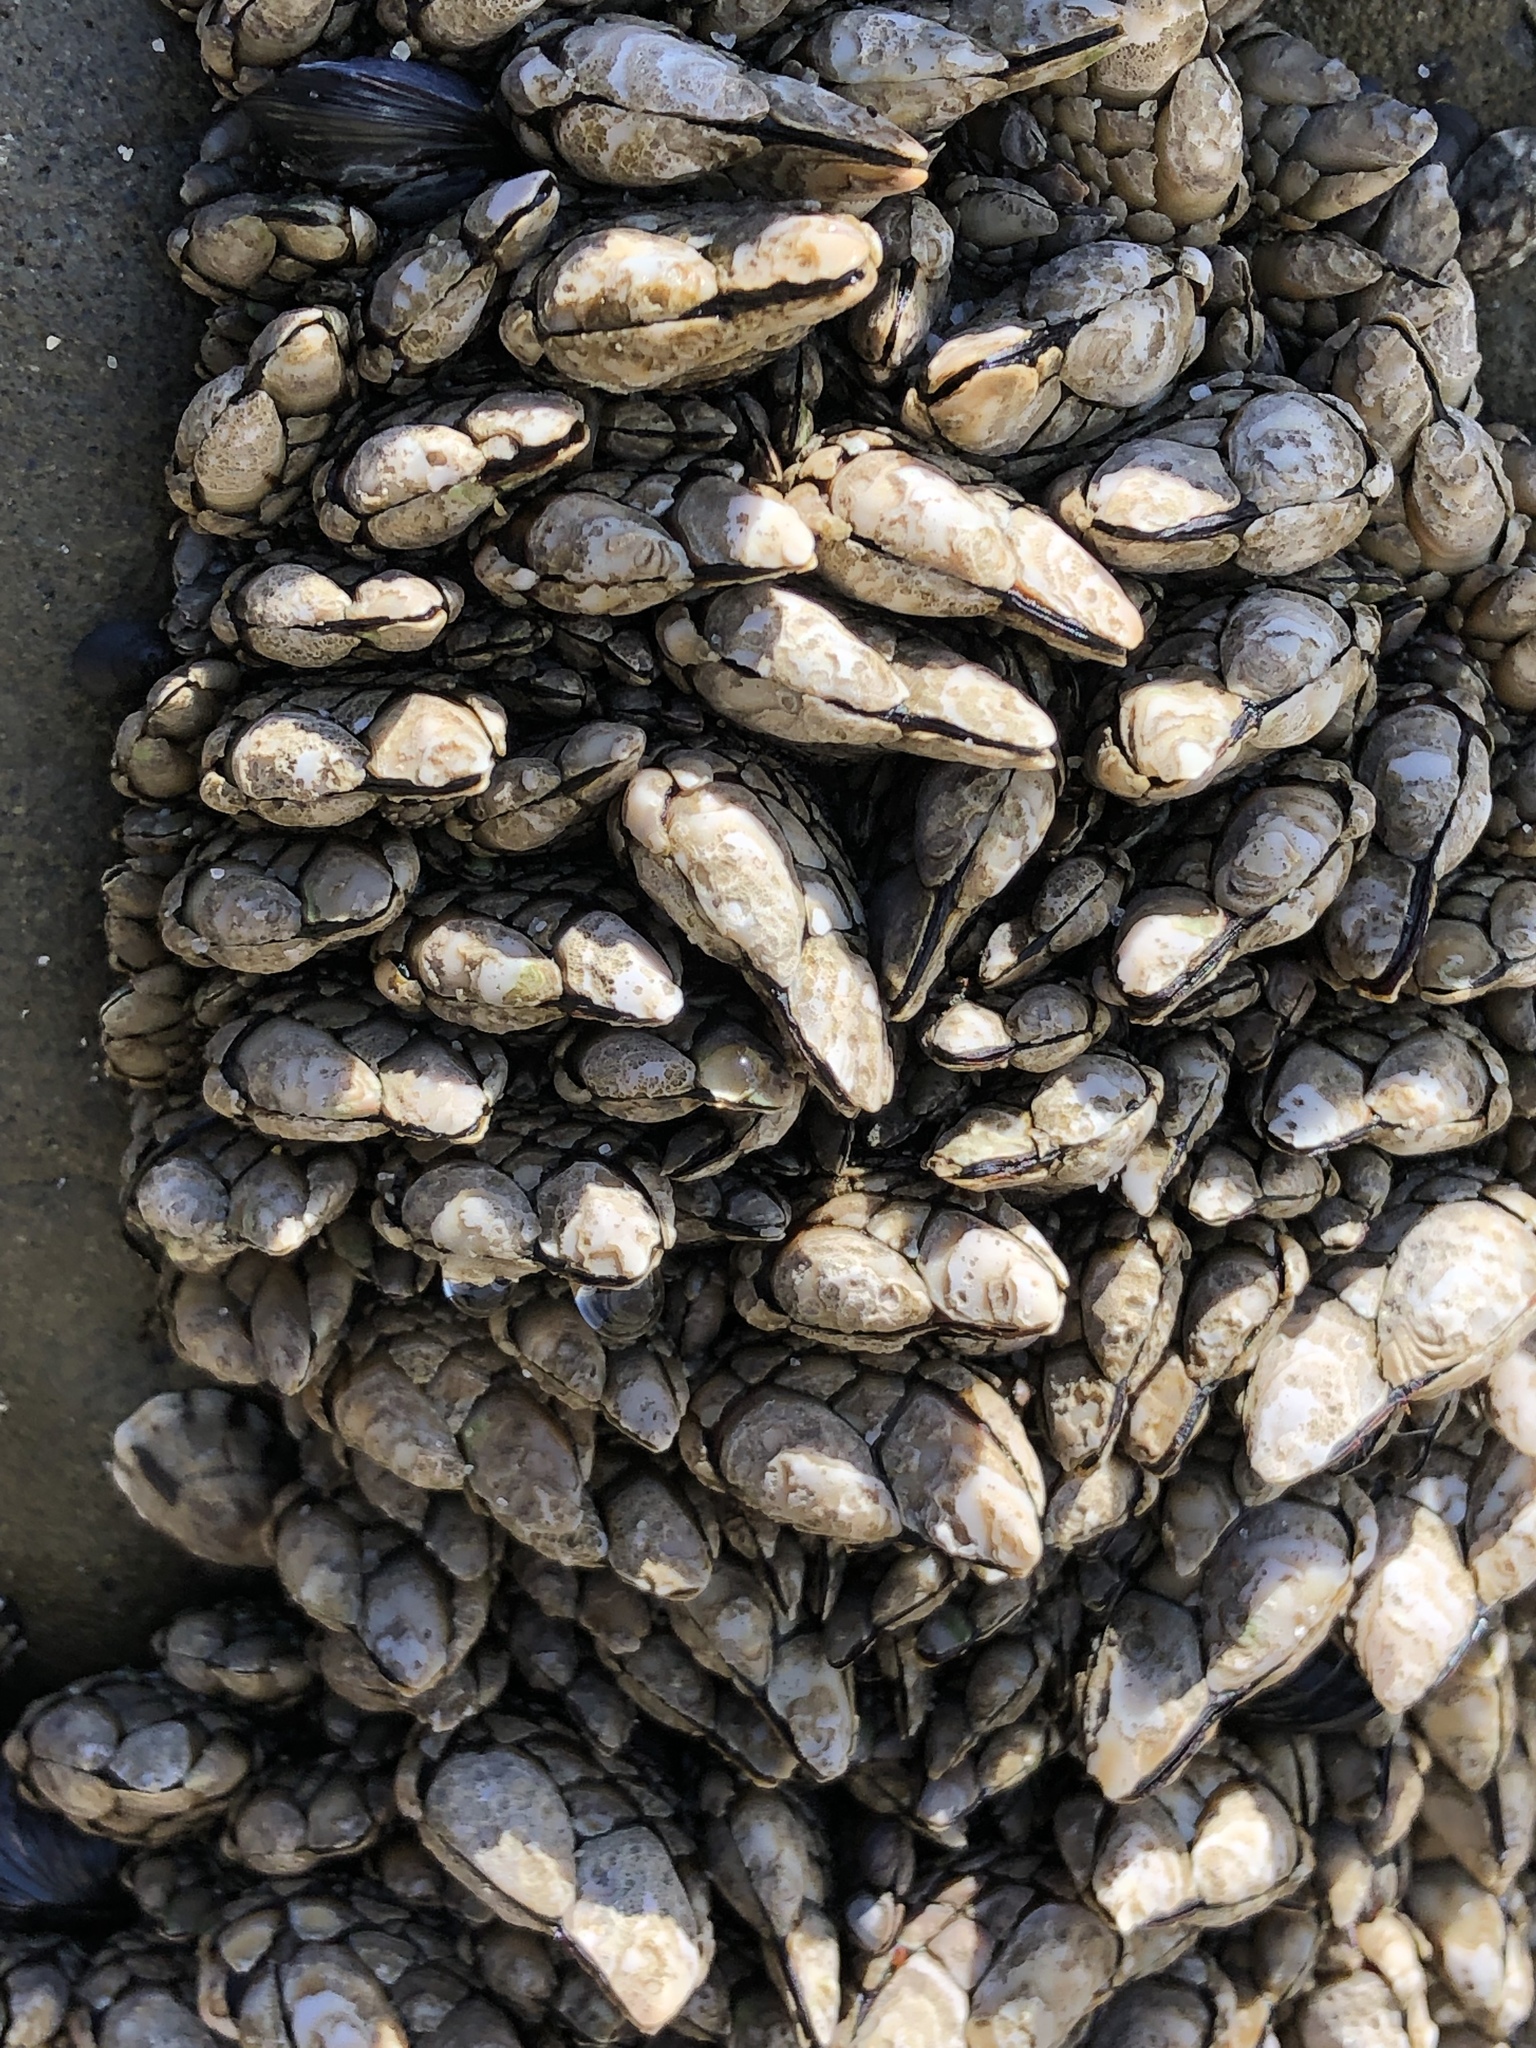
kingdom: Animalia
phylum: Arthropoda
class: Maxillopoda
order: Pedunculata
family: Pollicipedidae
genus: Pollicipes
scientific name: Pollicipes polymerus
